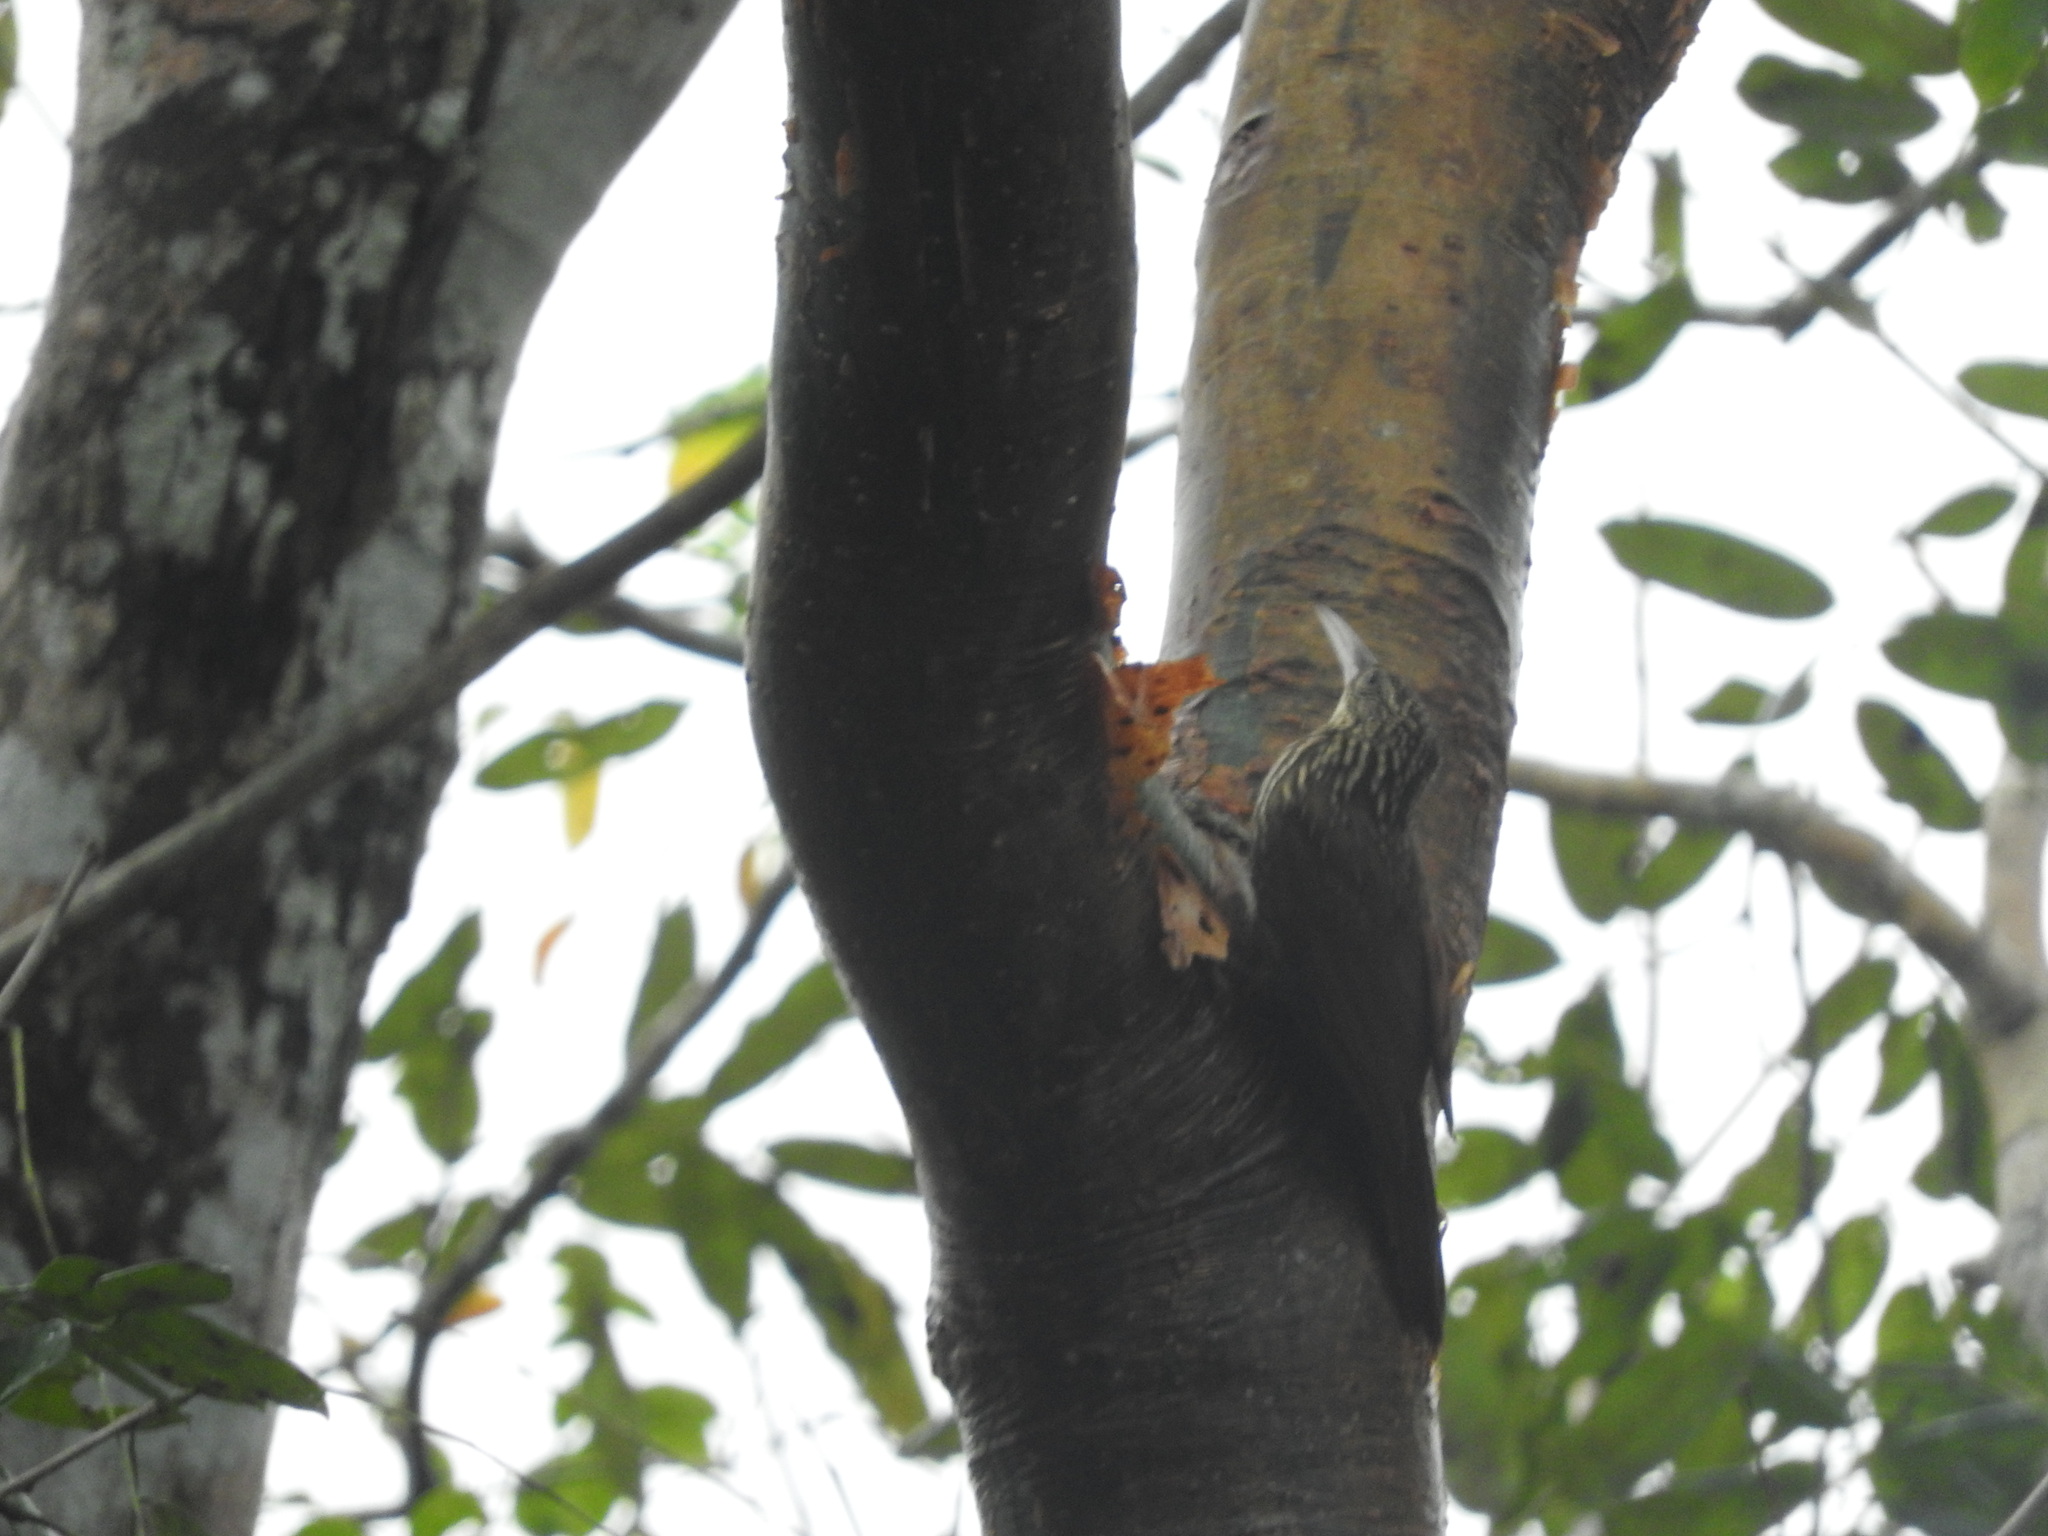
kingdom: Animalia
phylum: Chordata
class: Aves
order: Passeriformes
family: Furnariidae
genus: Xiphorhynchus
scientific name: Xiphorhynchus flavigaster
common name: Ivory-billed woodcreeper
